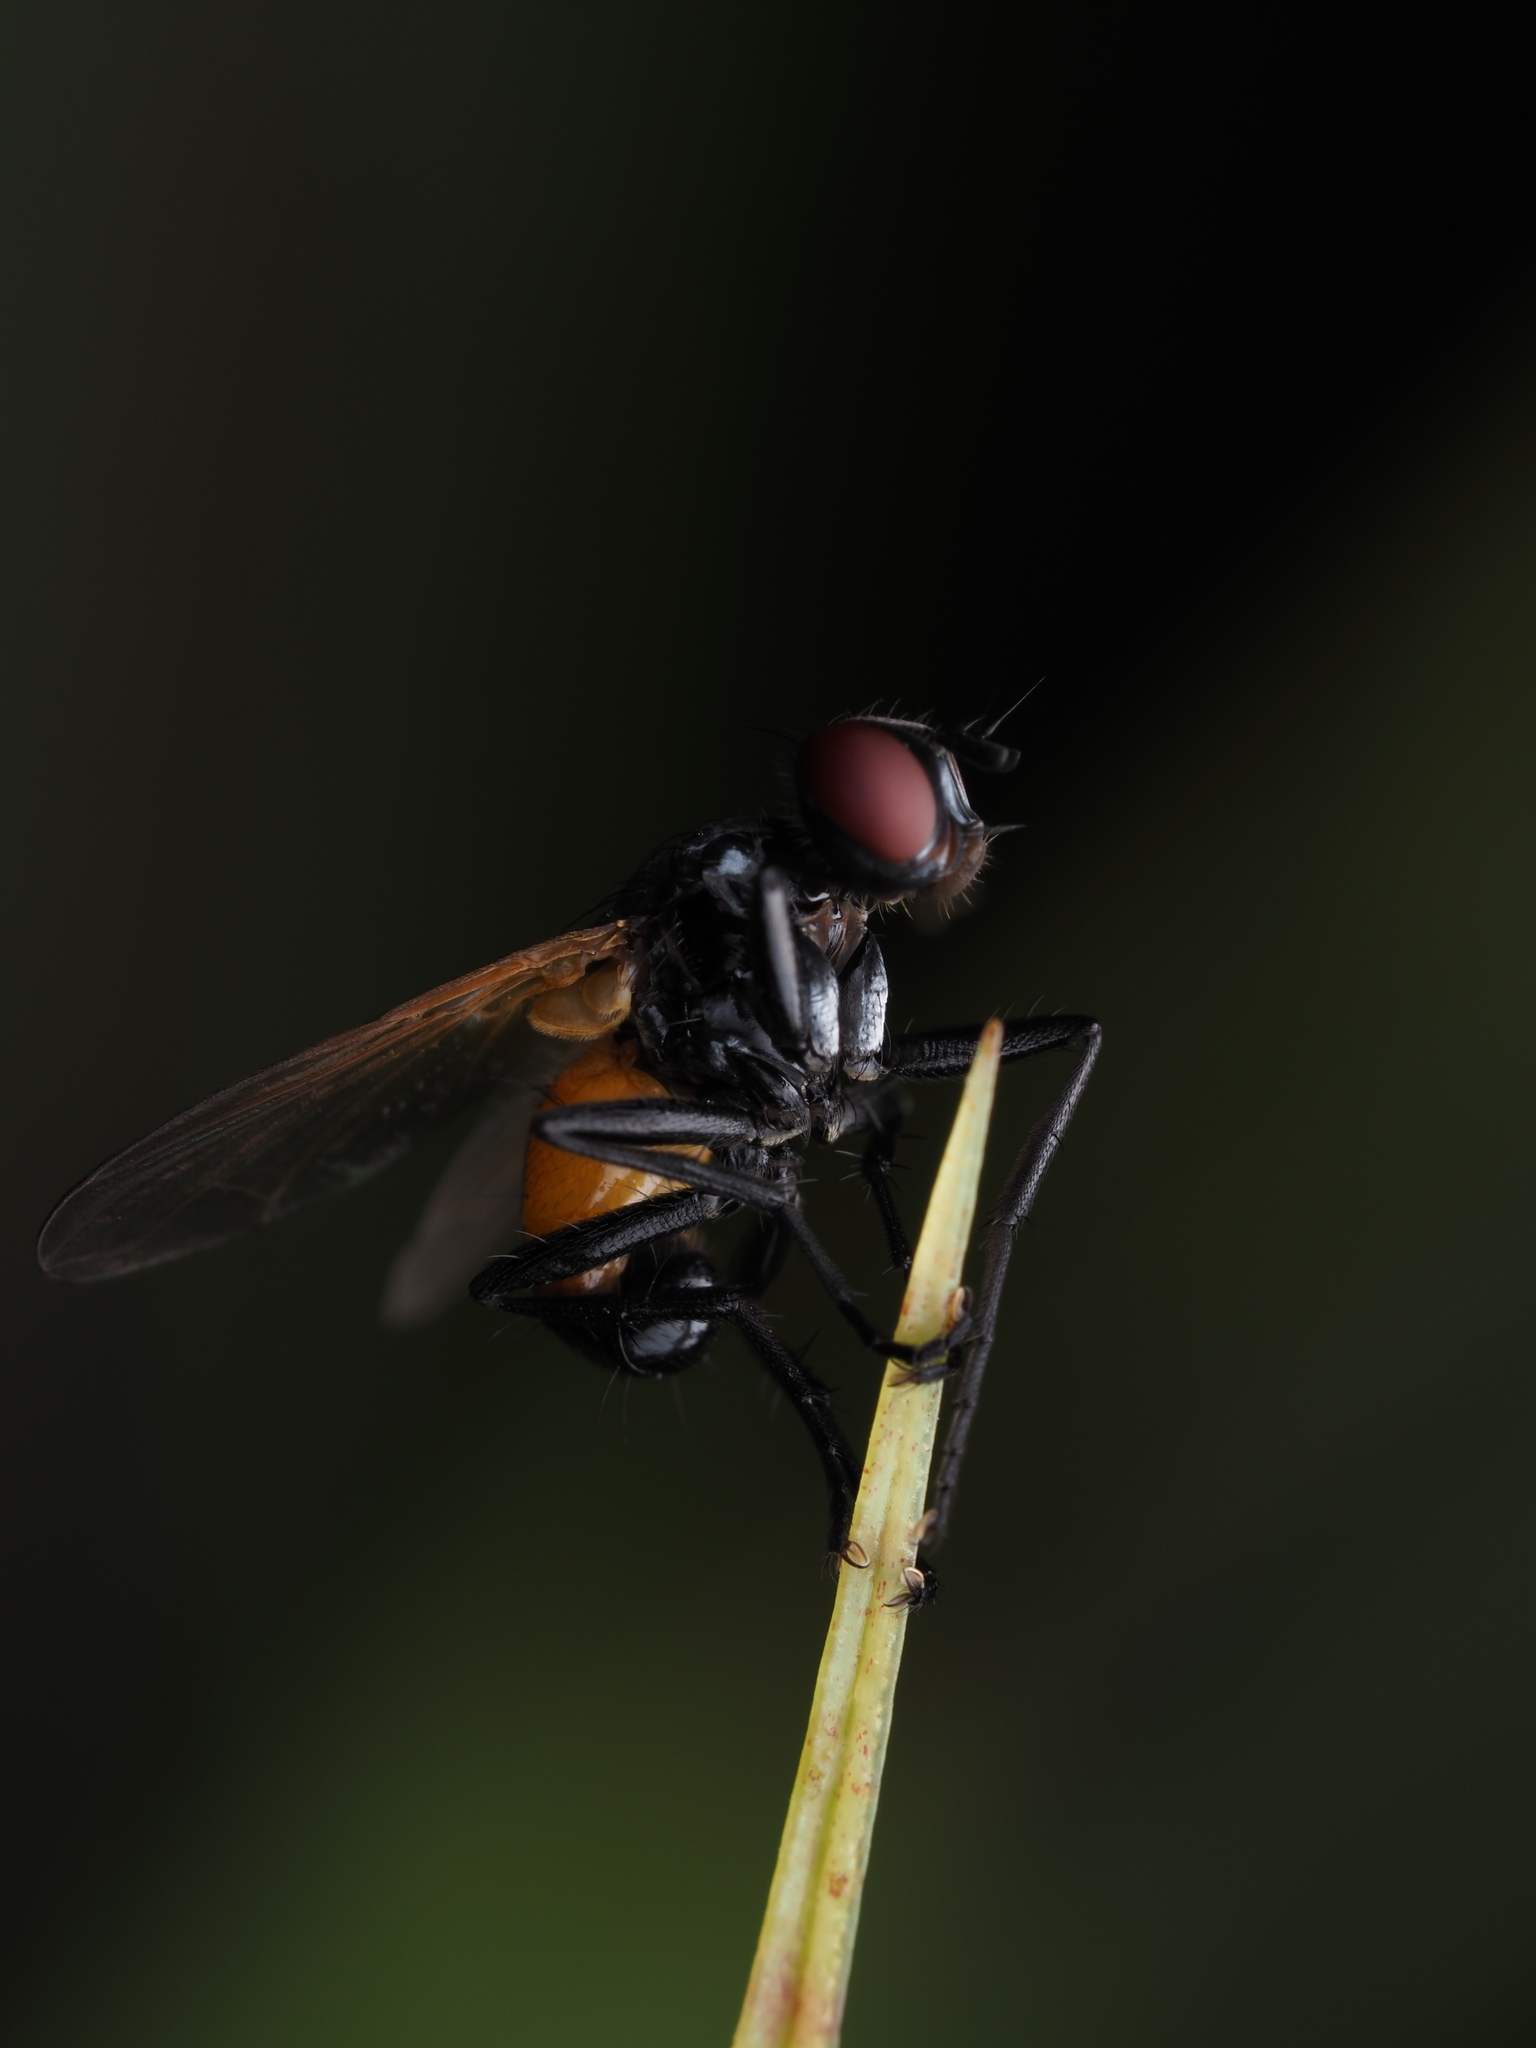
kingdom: Animalia
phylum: Arthropoda
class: Insecta
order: Diptera
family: Tachinidae
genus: Huttonobesseria
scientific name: Huttonobesseria verecunda
